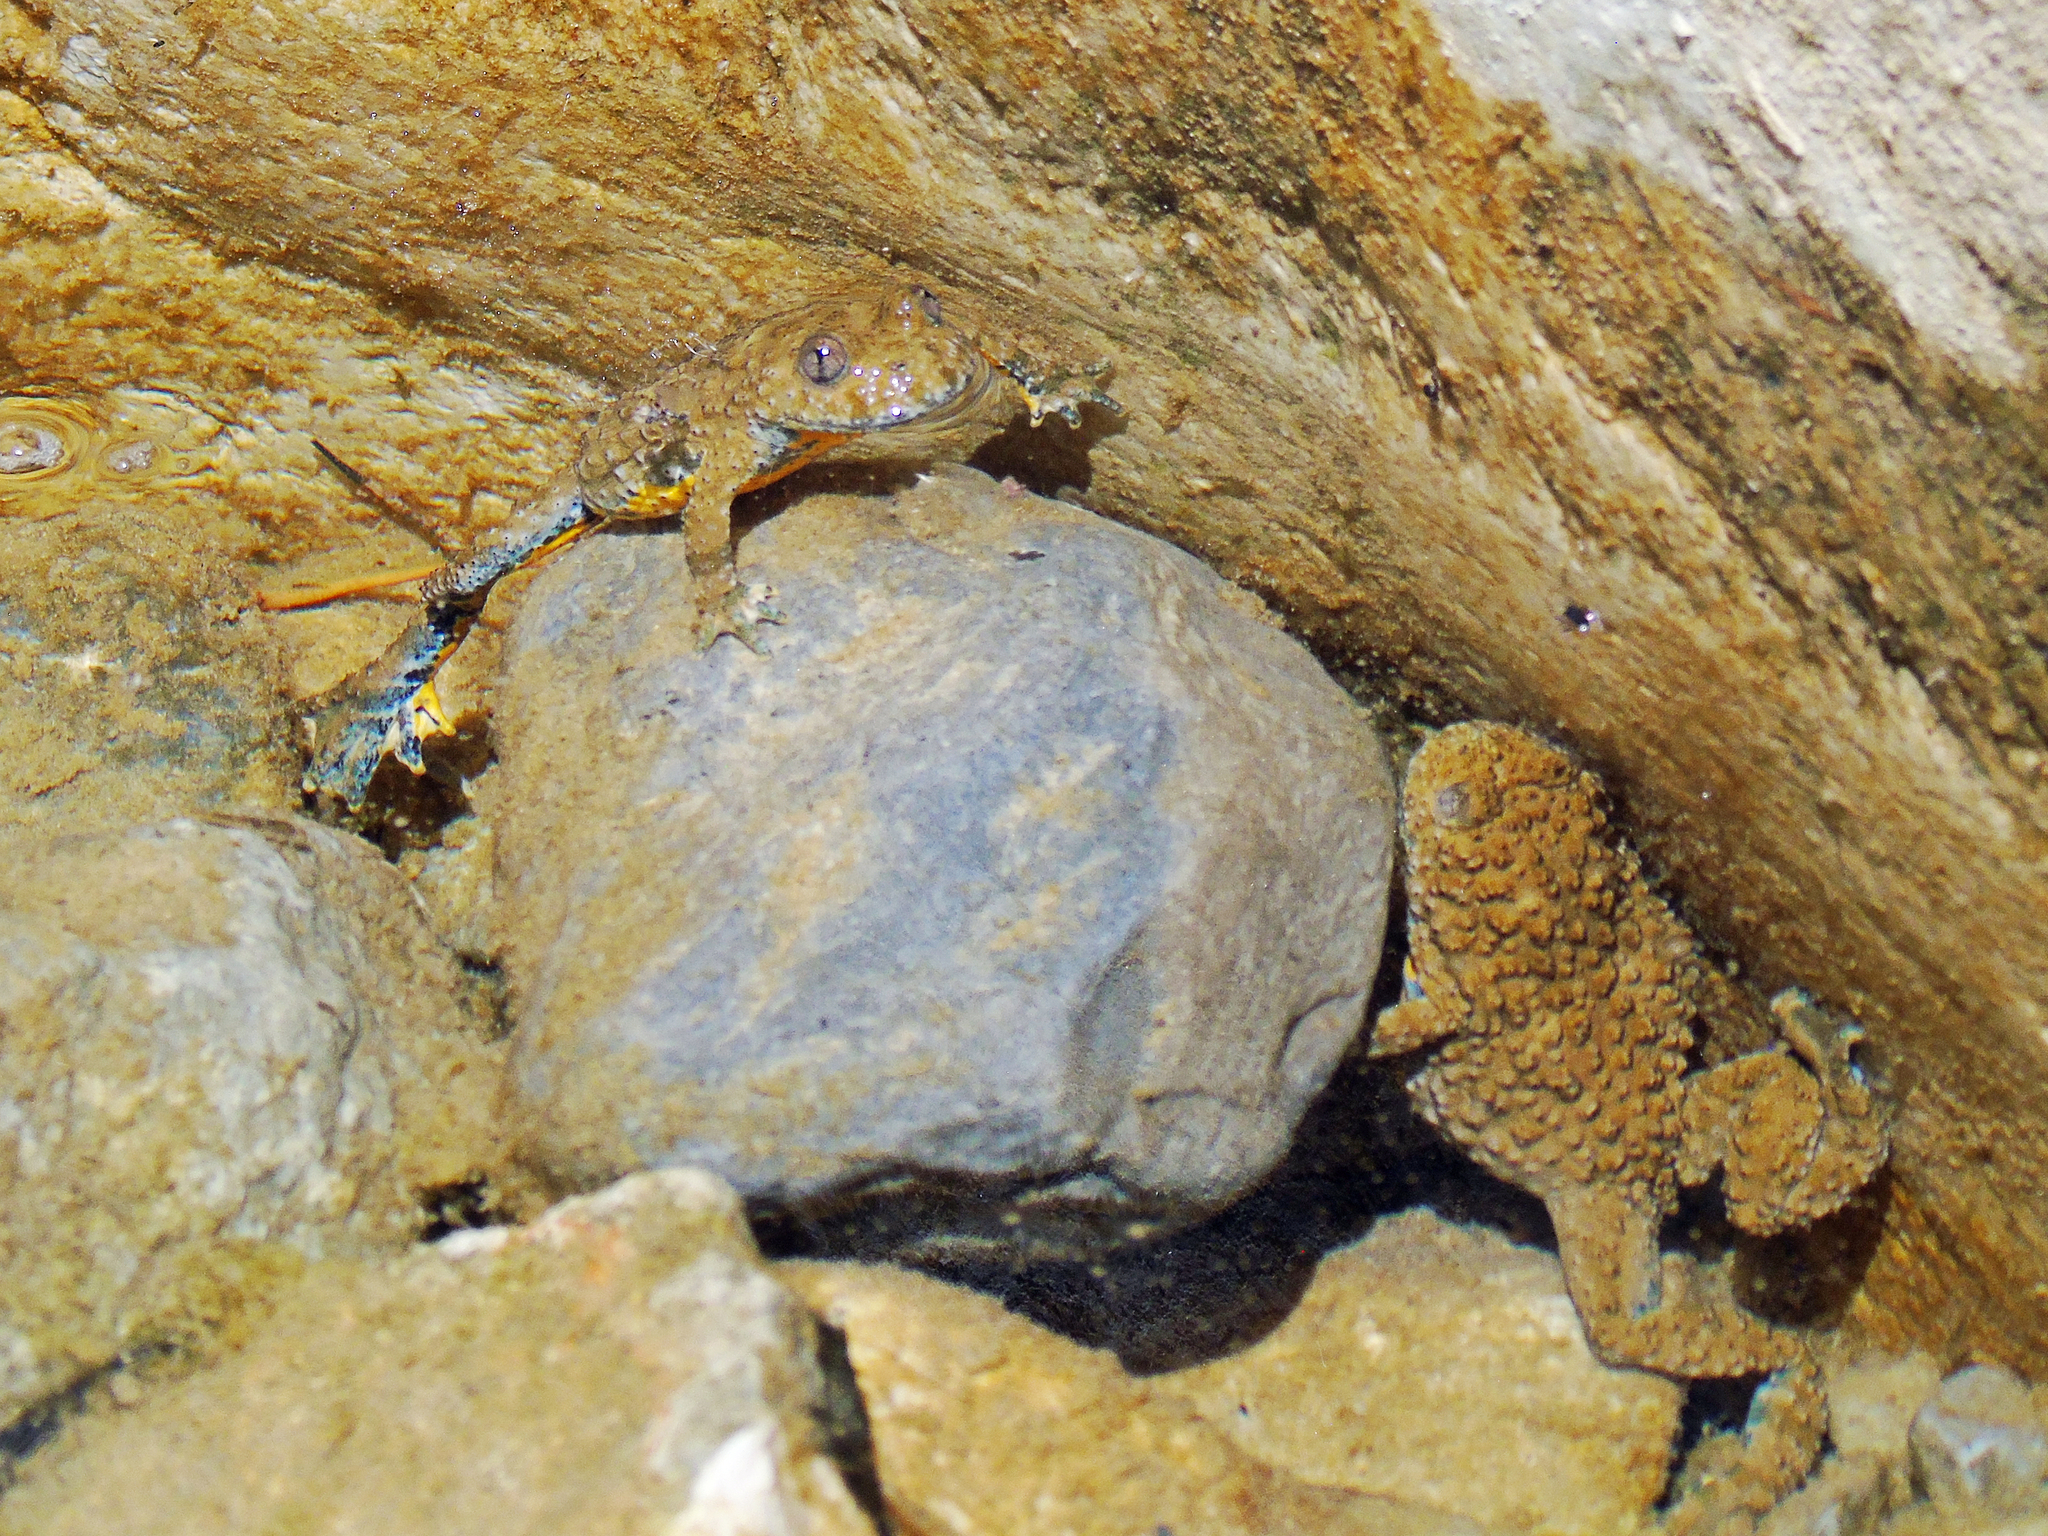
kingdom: Animalia
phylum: Chordata
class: Amphibia
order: Anura
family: Bombinatoridae
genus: Bombina
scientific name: Bombina variegata
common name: Yellow-bellied toad
